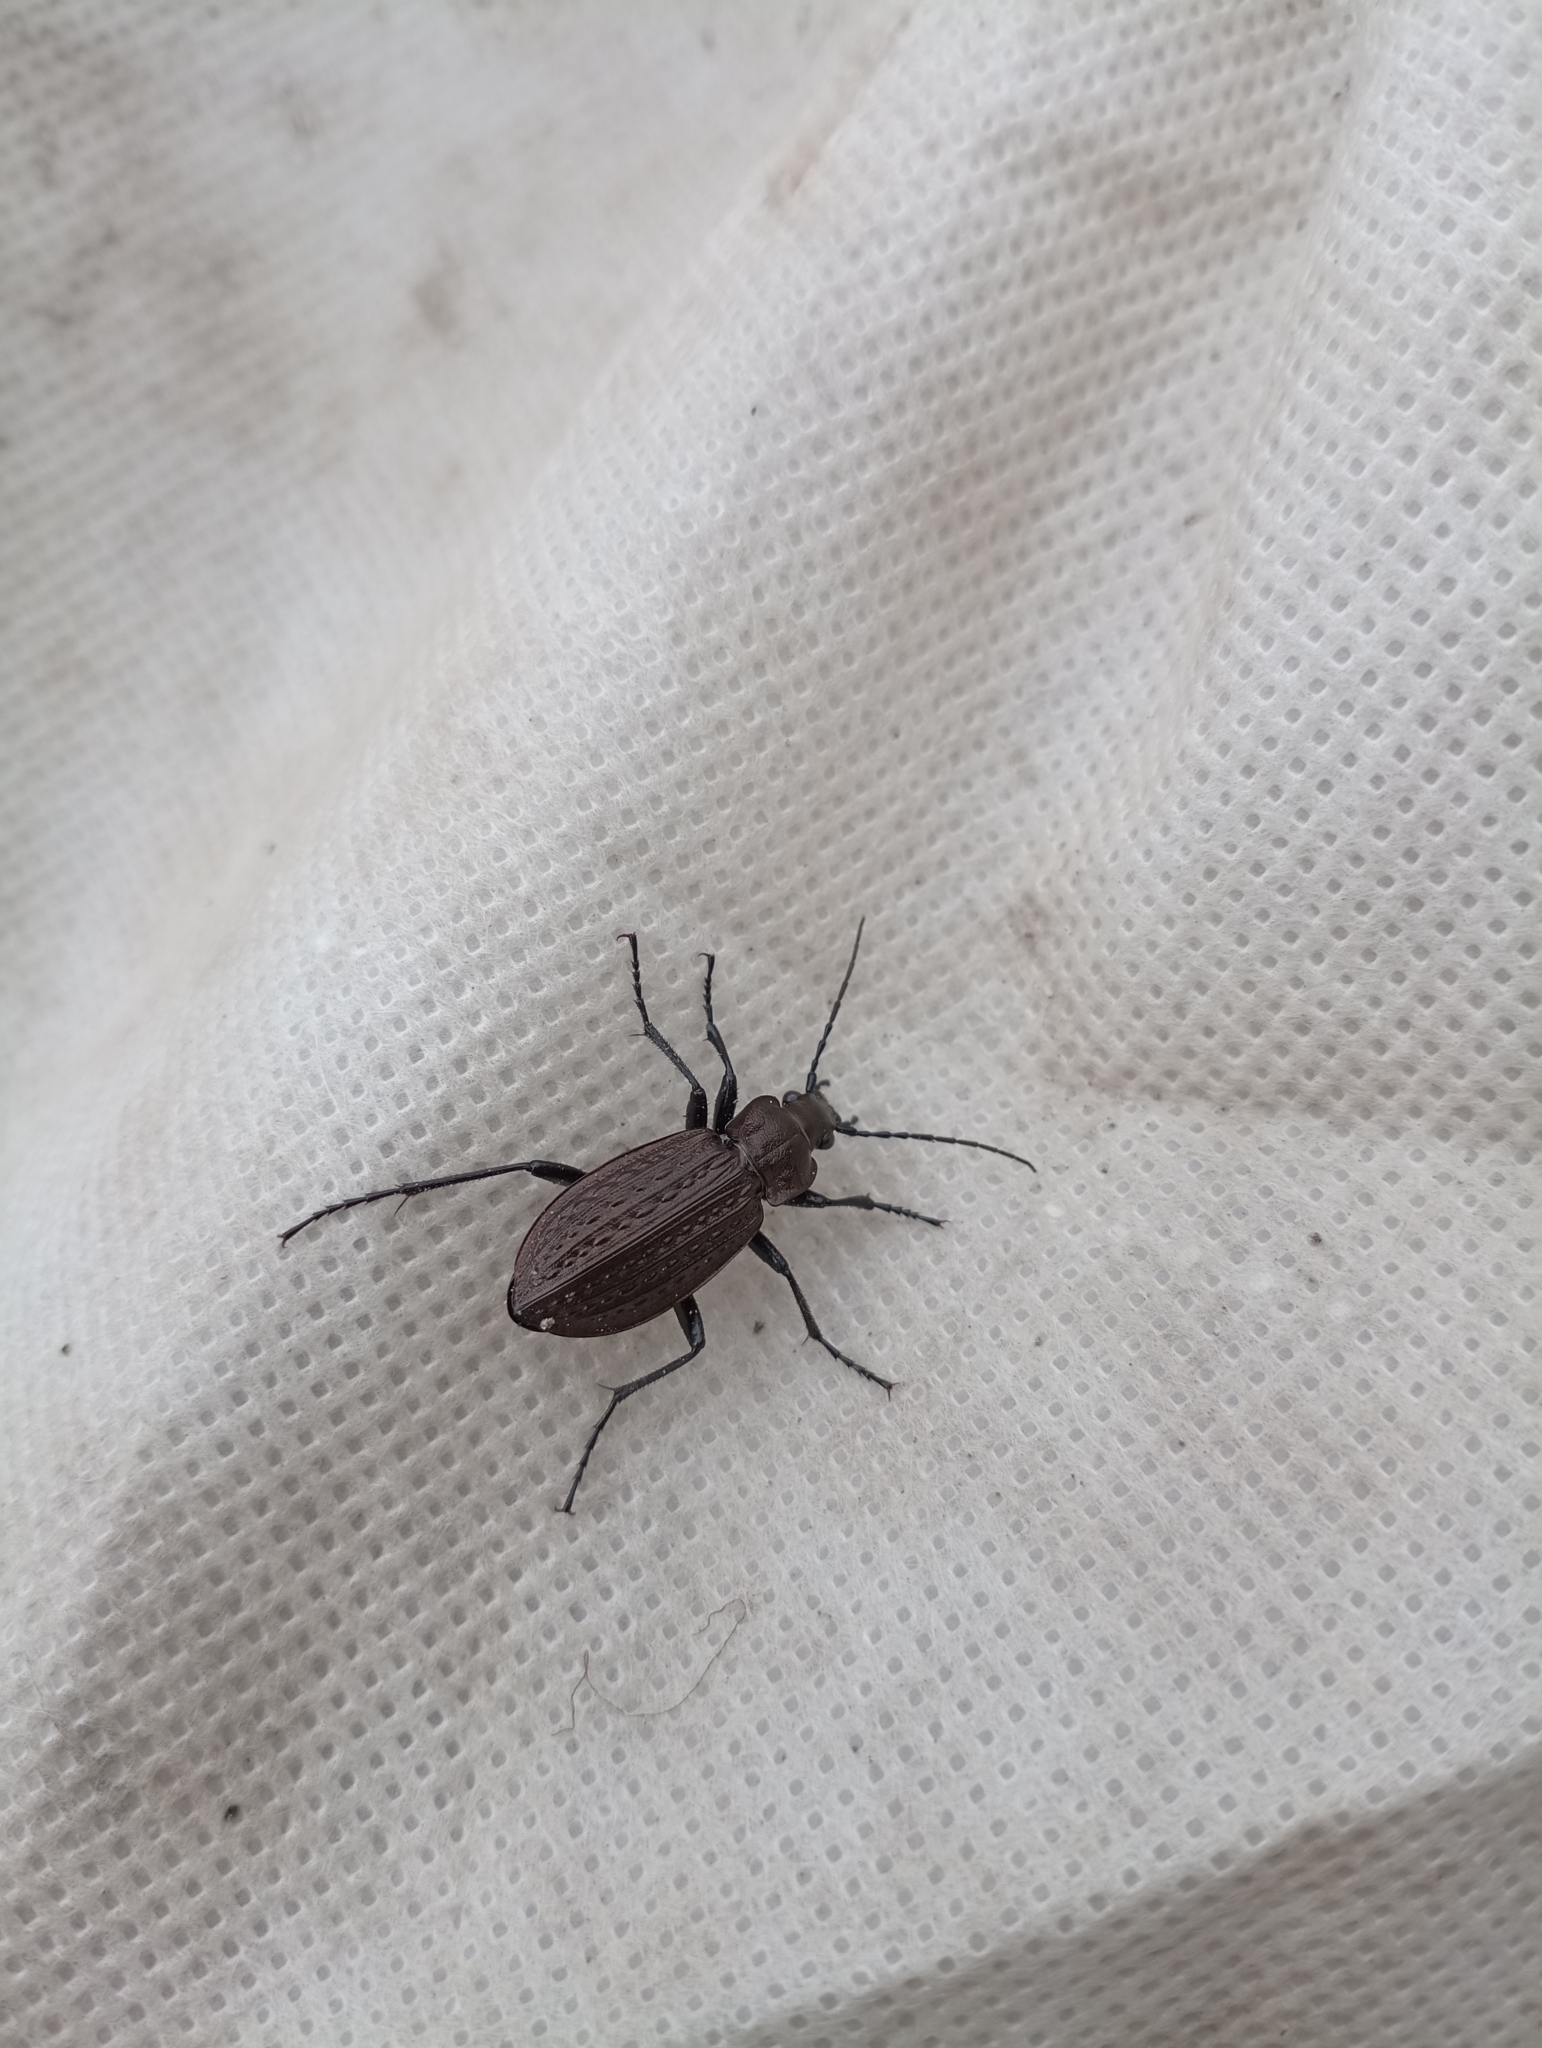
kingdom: Animalia
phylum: Arthropoda
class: Insecta
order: Coleoptera
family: Carabidae
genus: Carabus
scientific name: Carabus granulatus
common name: Granulate ground beetle
